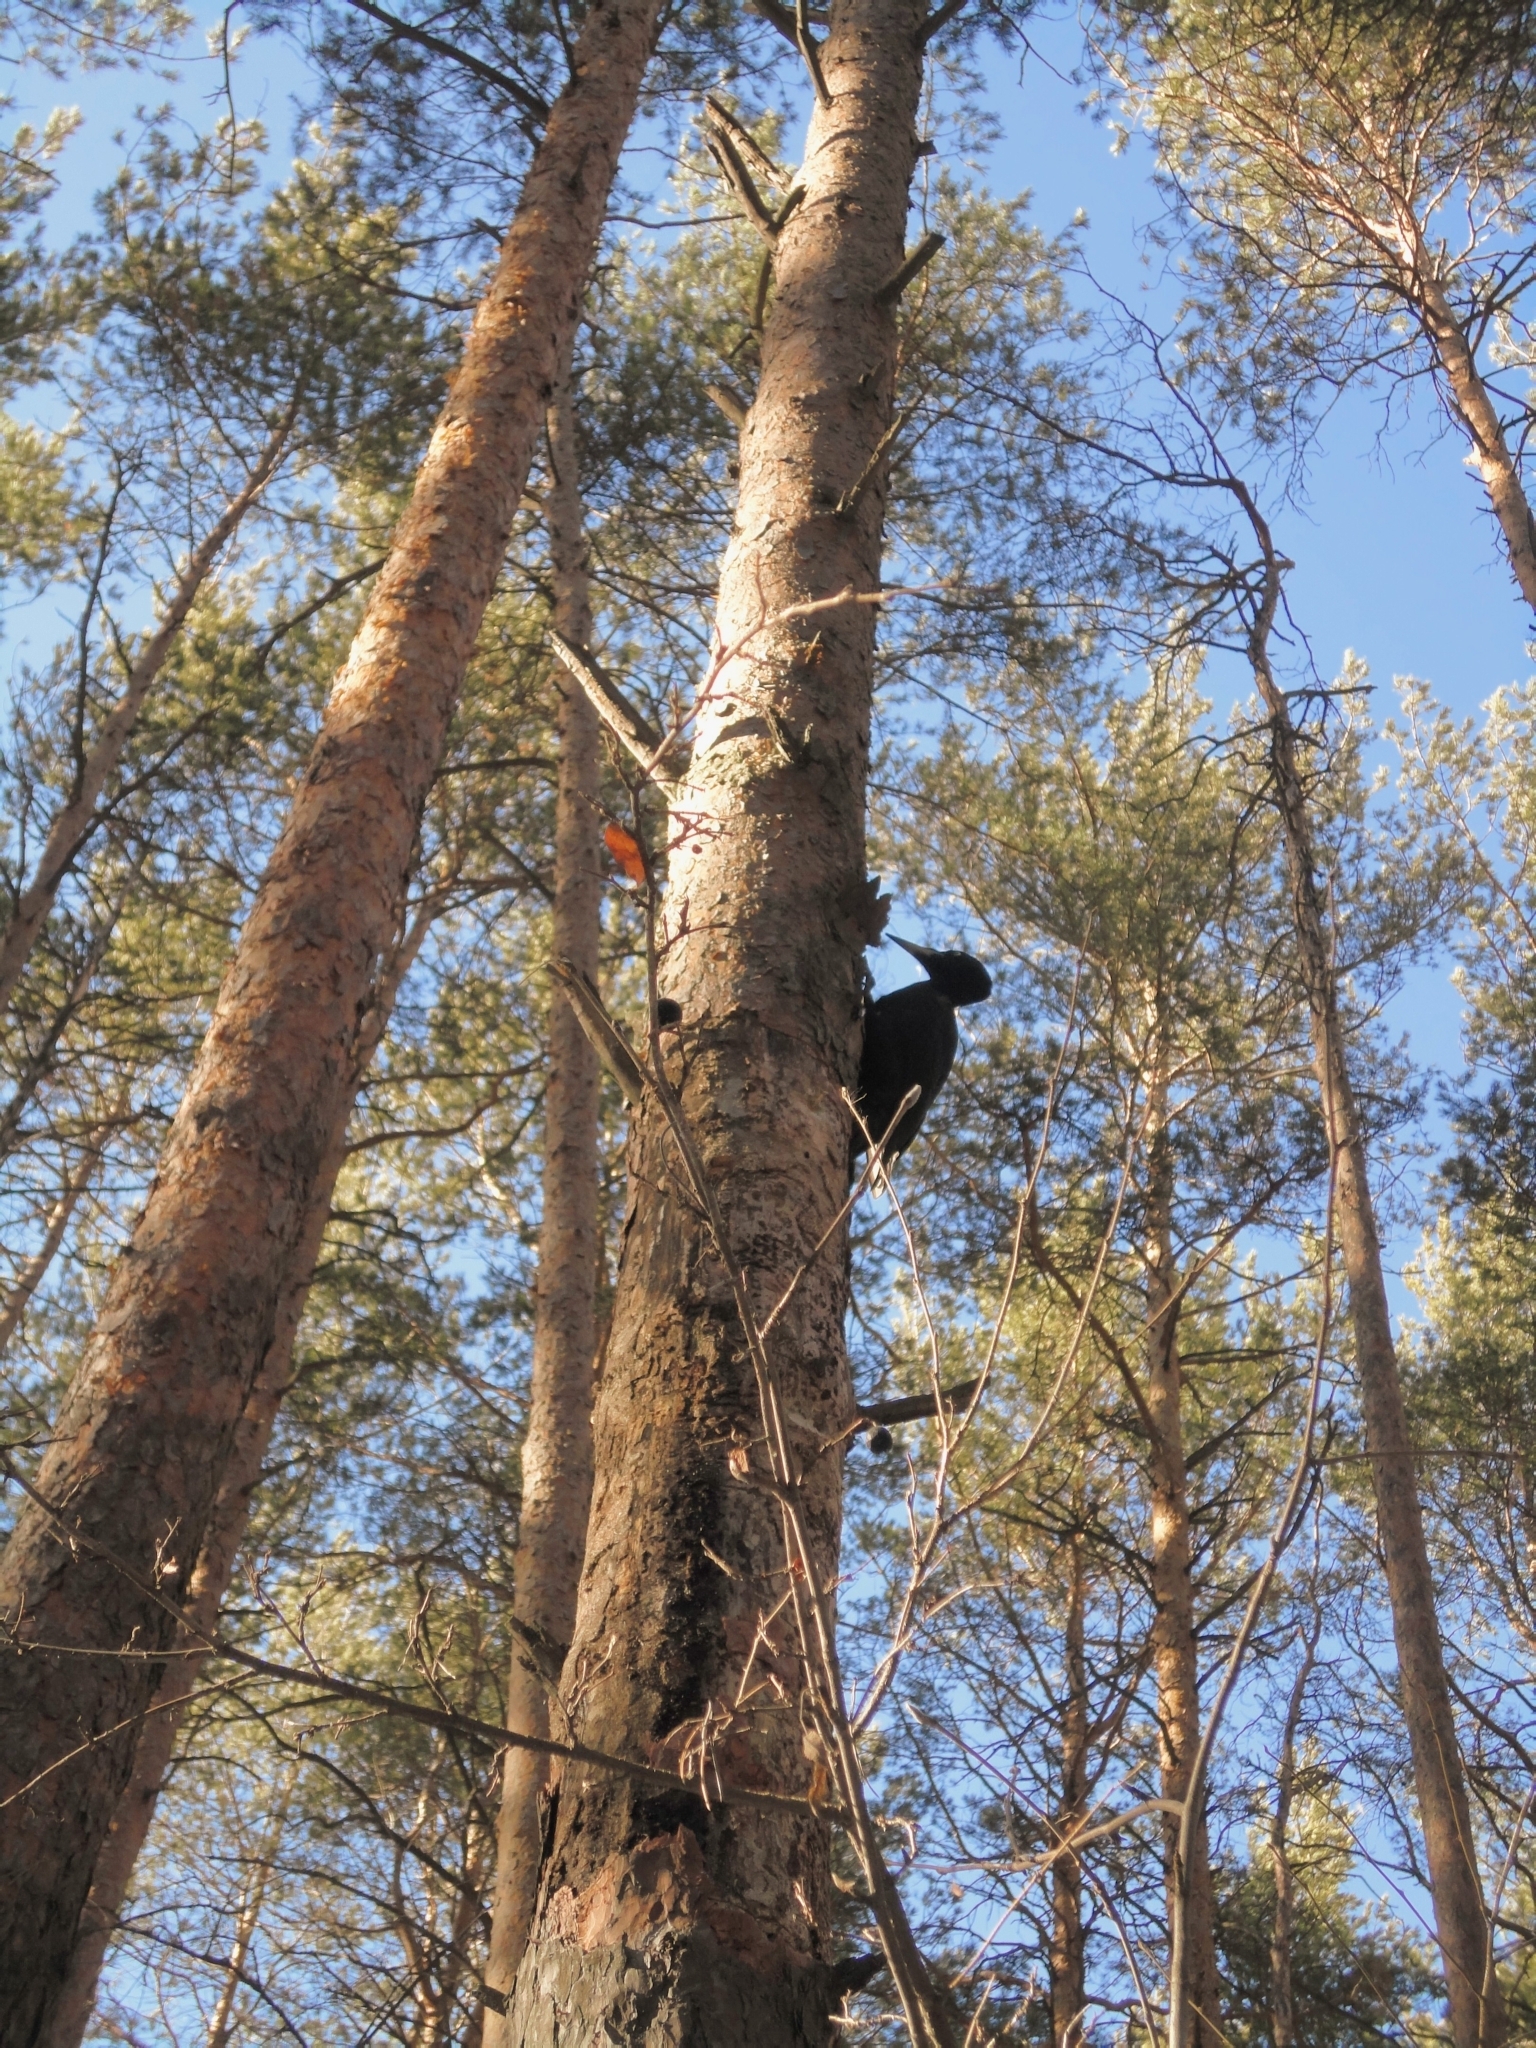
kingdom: Animalia
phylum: Chordata
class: Aves
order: Piciformes
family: Picidae
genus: Dryocopus
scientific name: Dryocopus martius
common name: Black woodpecker
